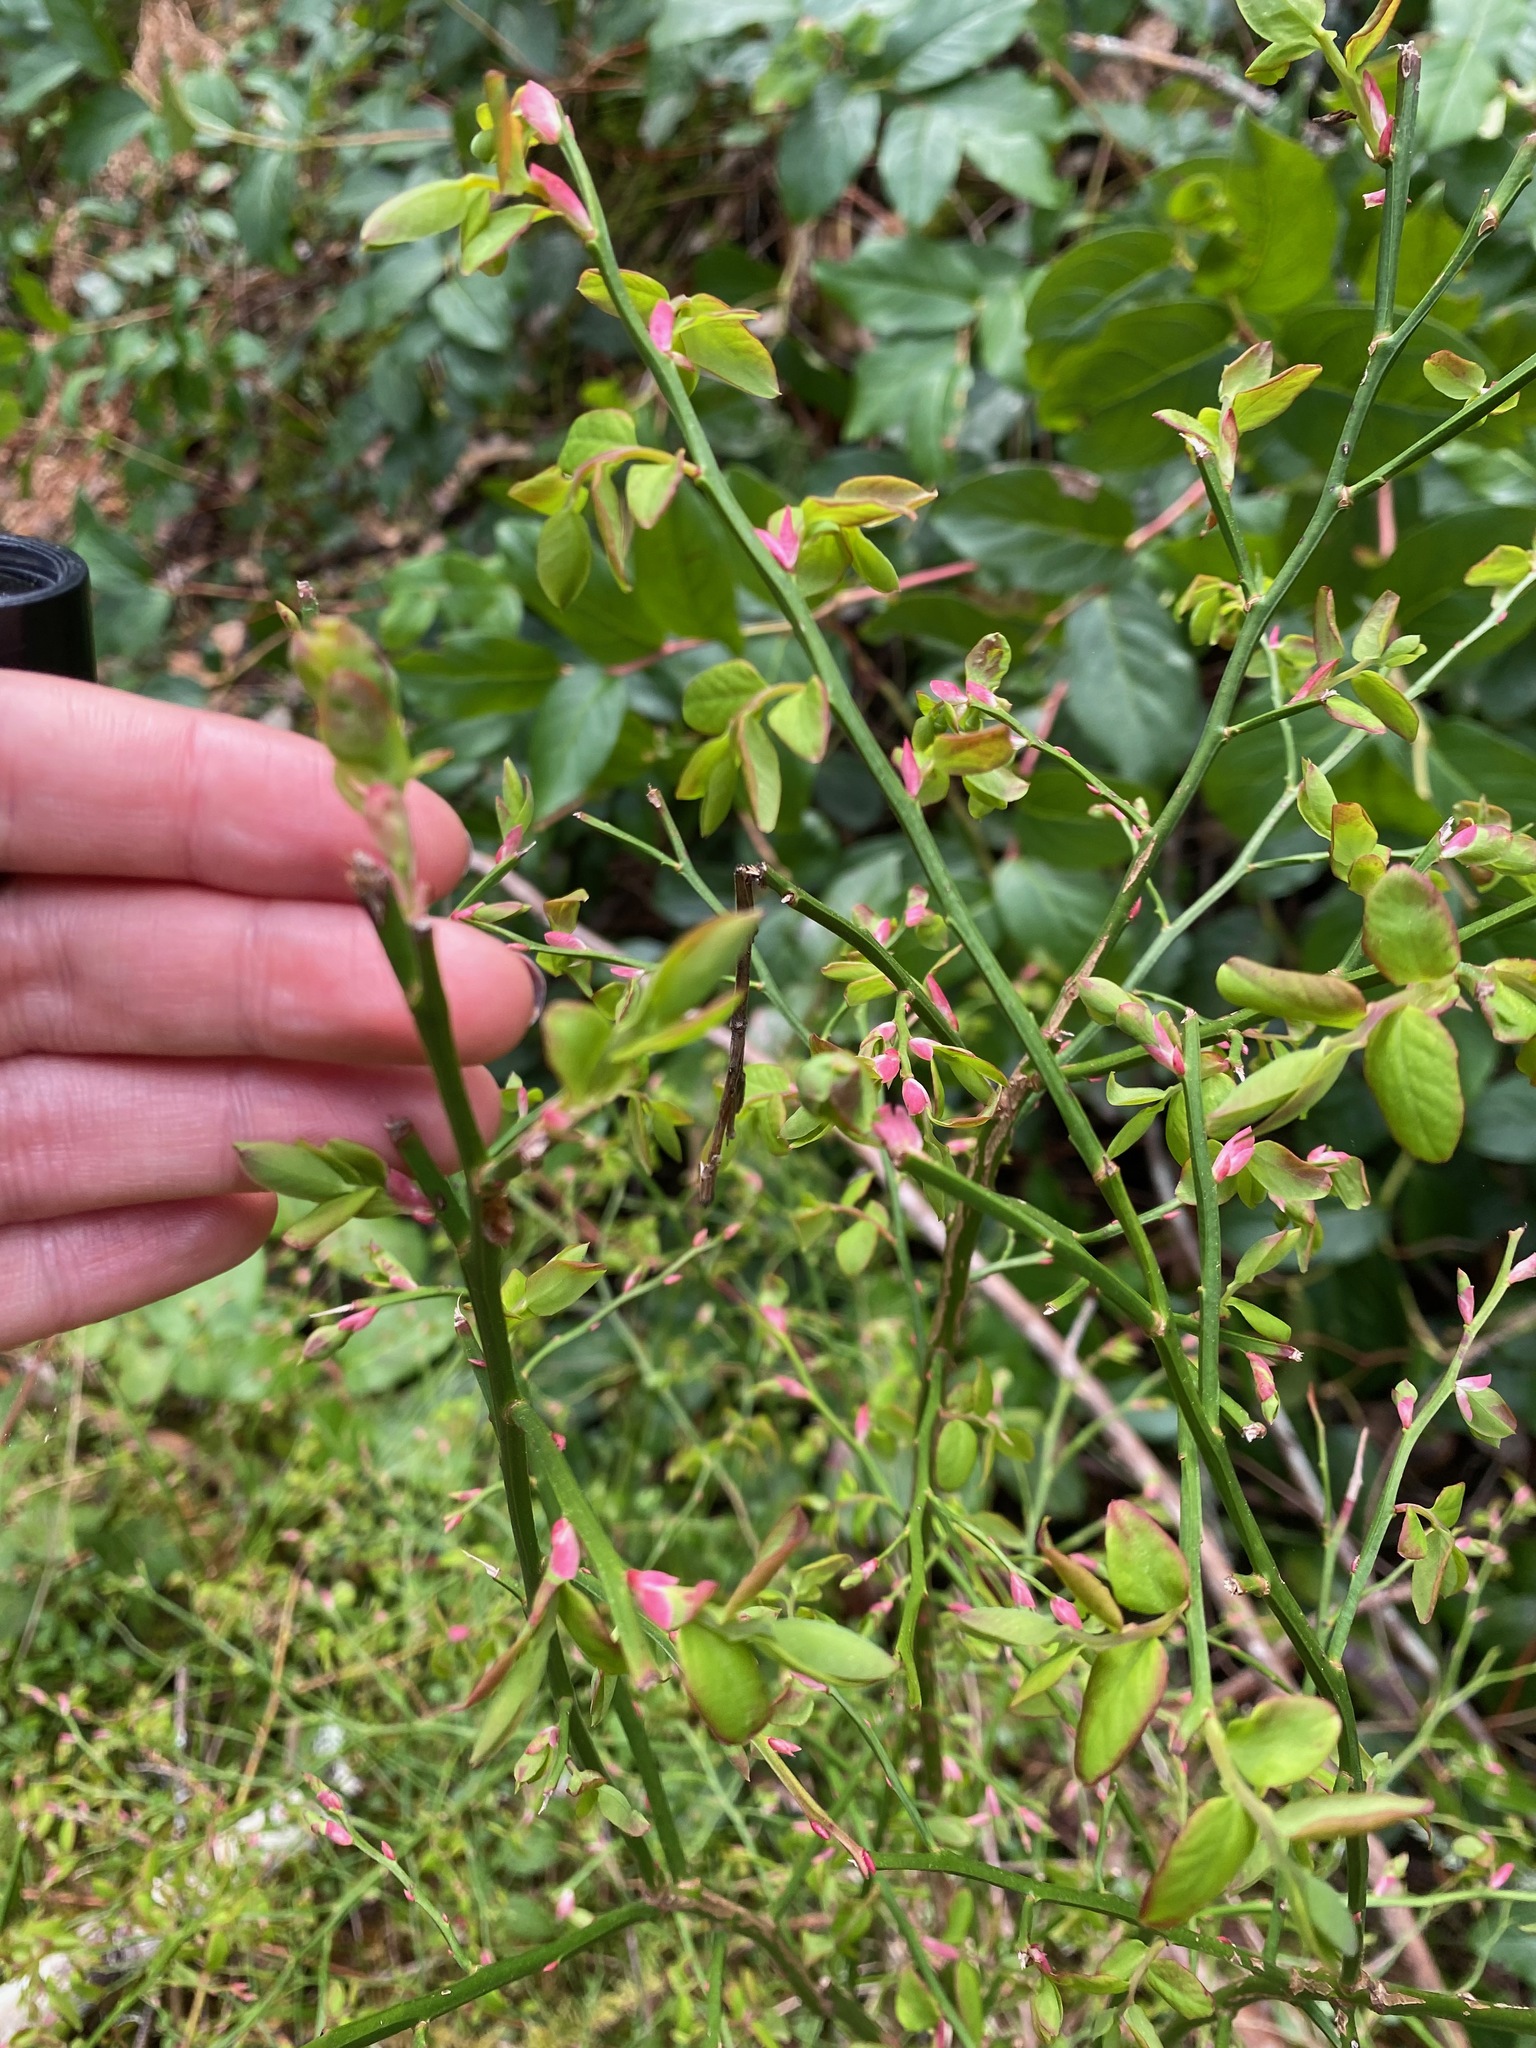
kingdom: Plantae
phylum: Tracheophyta
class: Magnoliopsida
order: Ericales
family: Ericaceae
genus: Vaccinium
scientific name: Vaccinium parvifolium
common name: Red-huckleberry
